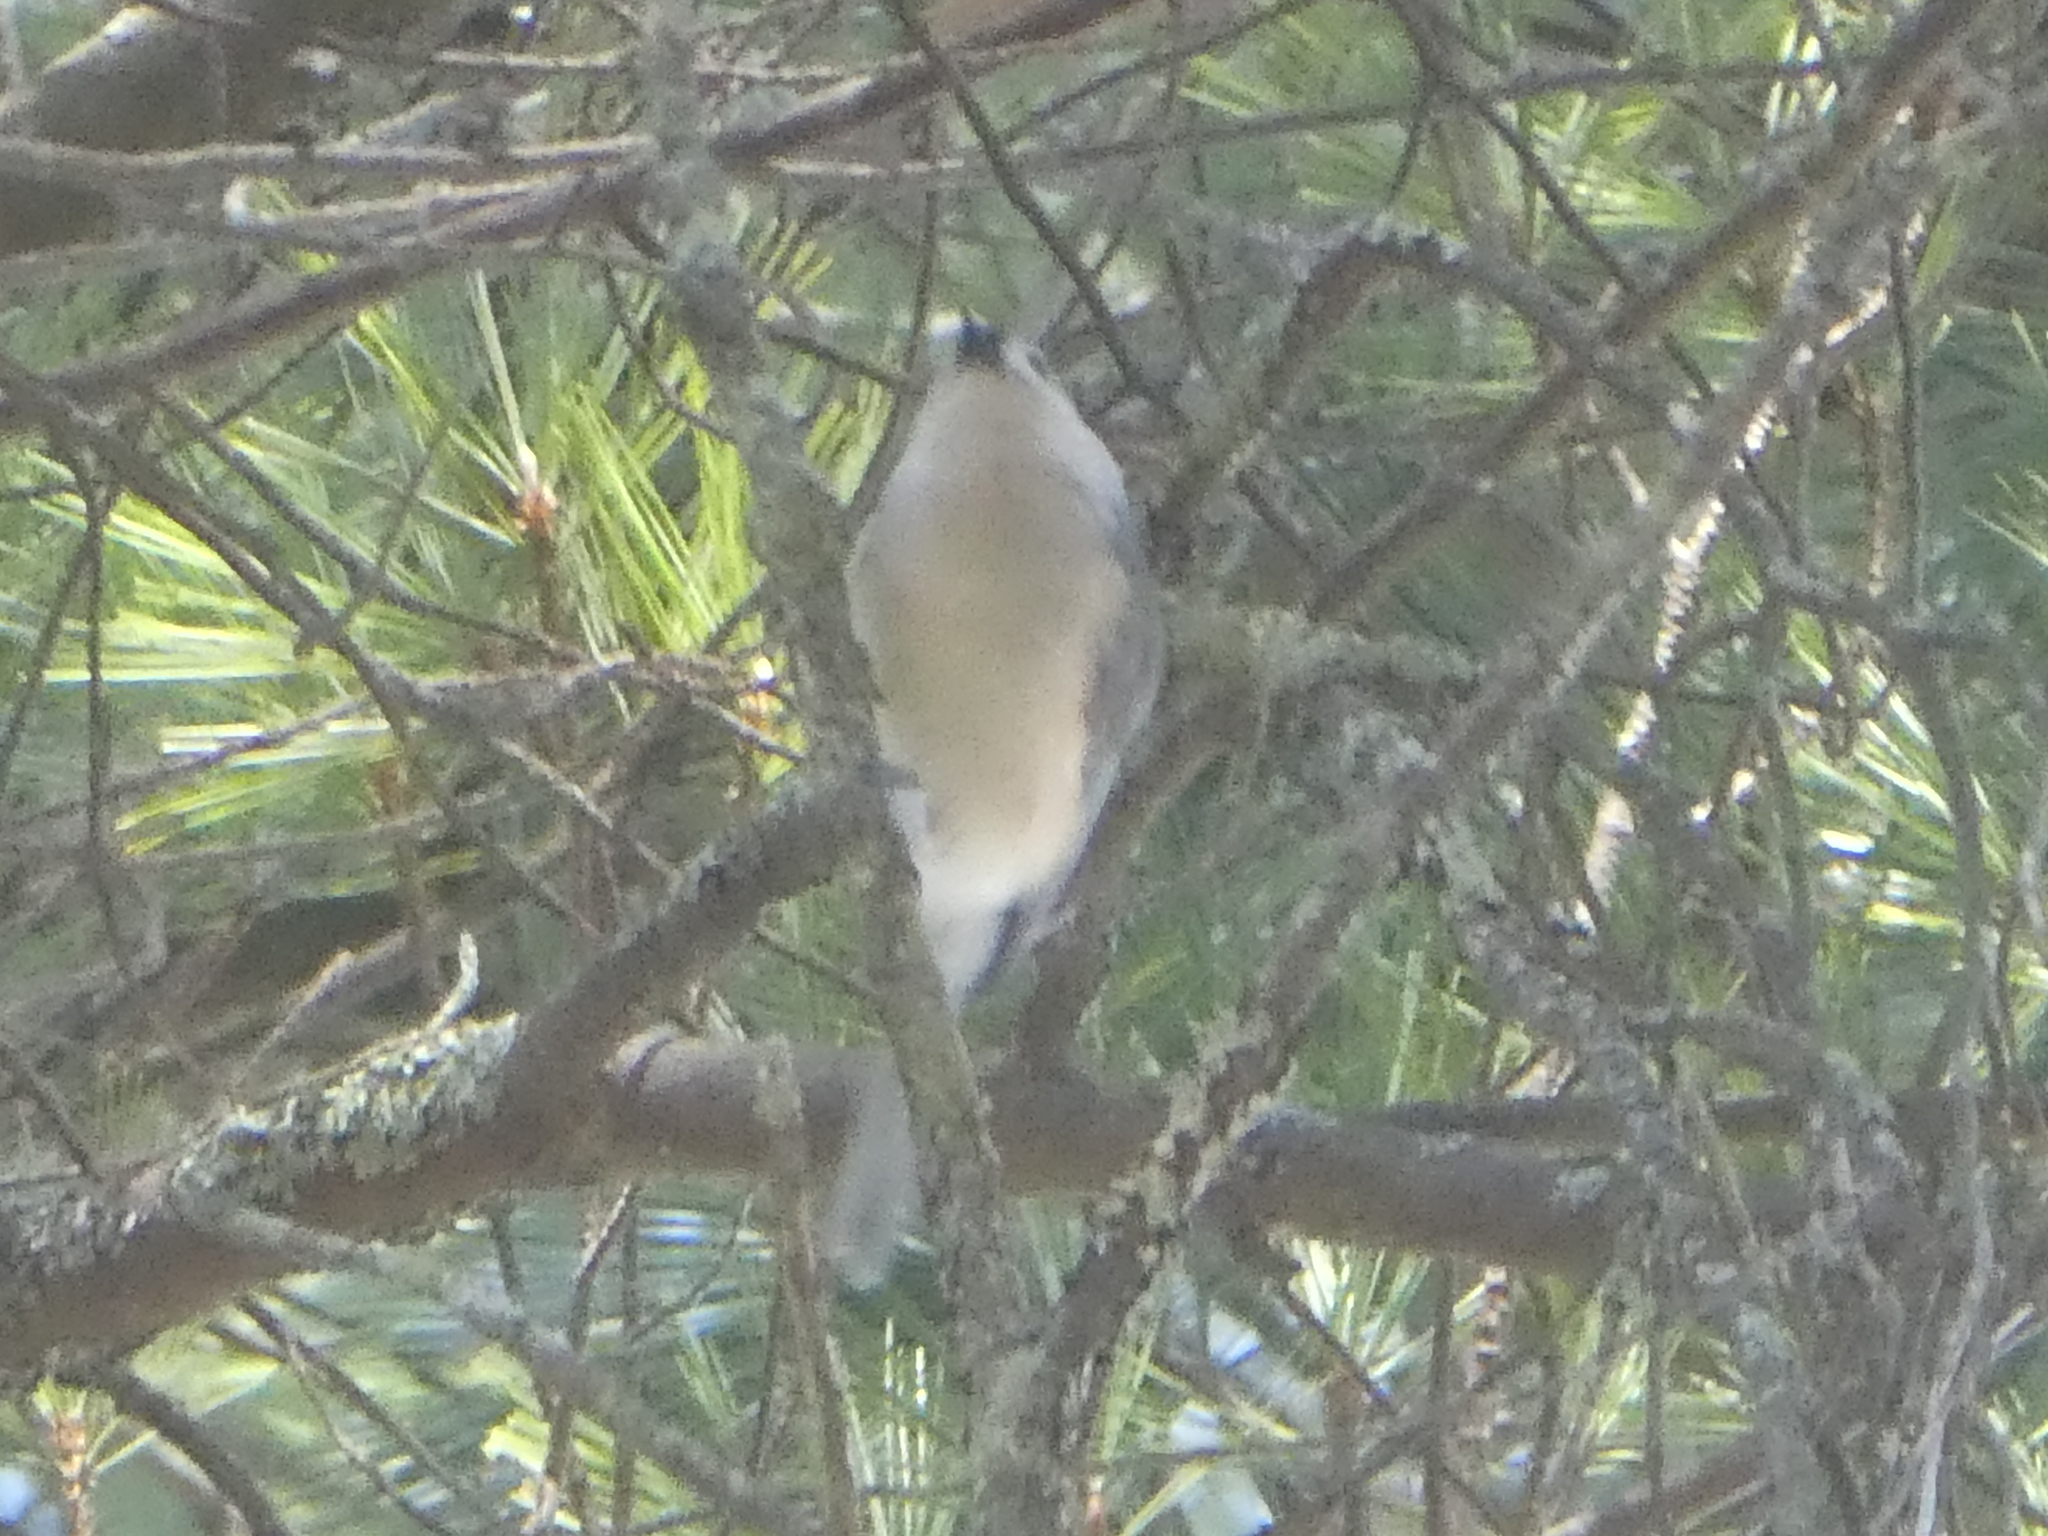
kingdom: Animalia
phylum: Chordata
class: Aves
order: Passeriformes
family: Paridae
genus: Baeolophus
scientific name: Baeolophus bicolor
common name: Tufted titmouse
